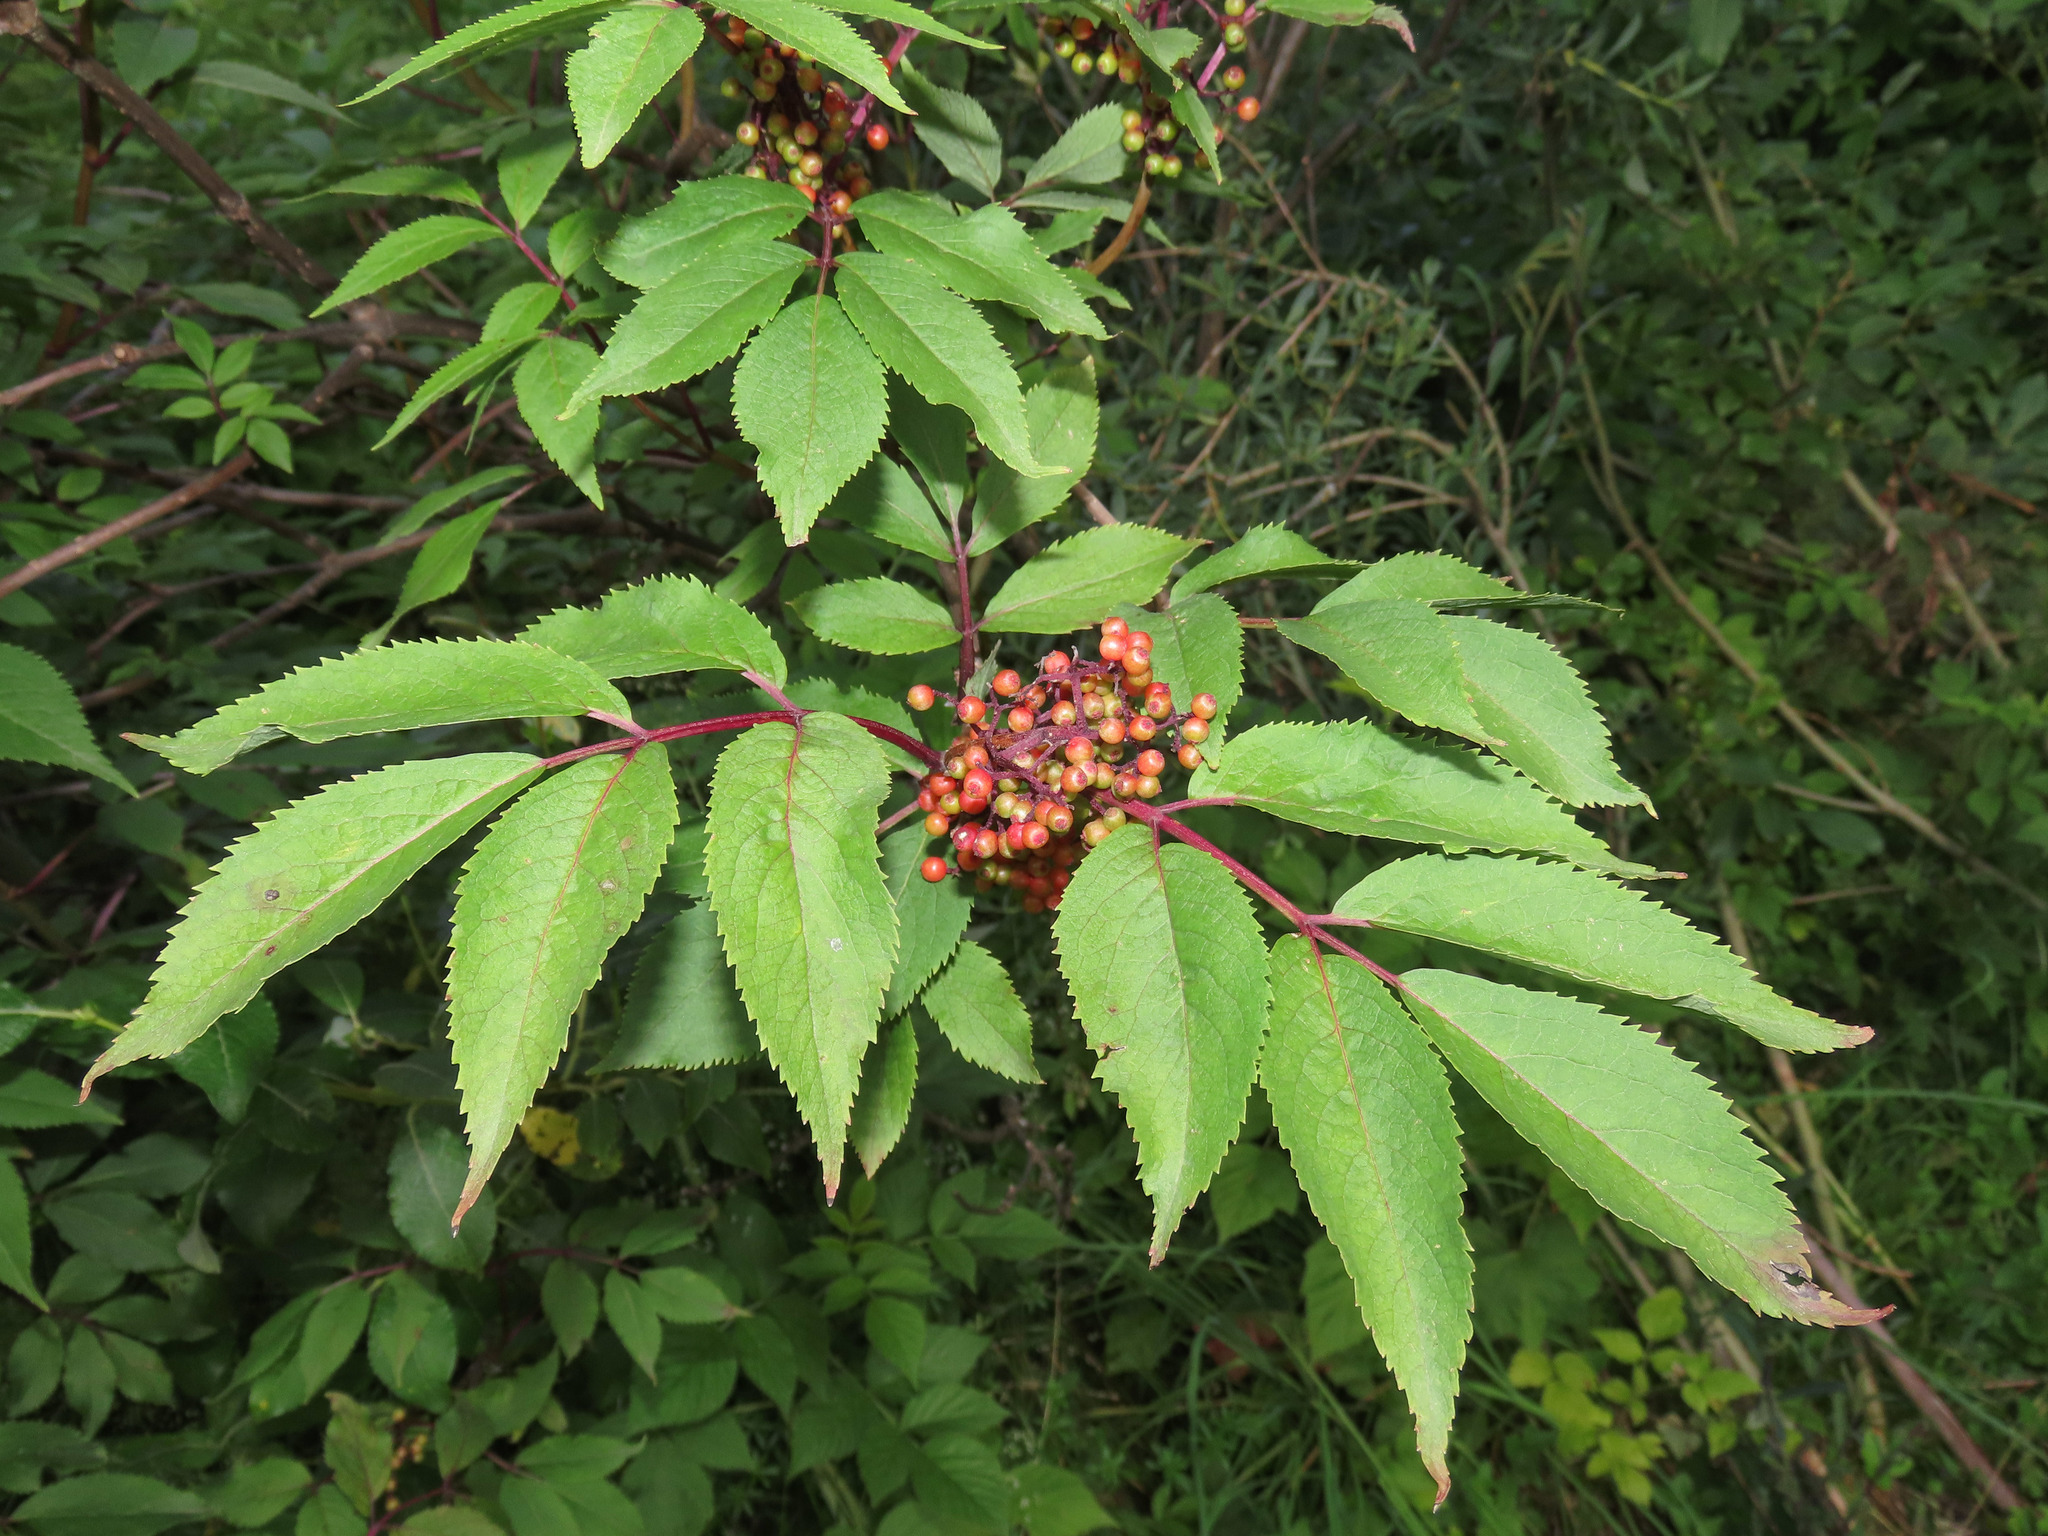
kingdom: Plantae
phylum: Tracheophyta
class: Magnoliopsida
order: Dipsacales
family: Viburnaceae
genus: Sambucus
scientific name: Sambucus racemosa
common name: Red-berried elder
